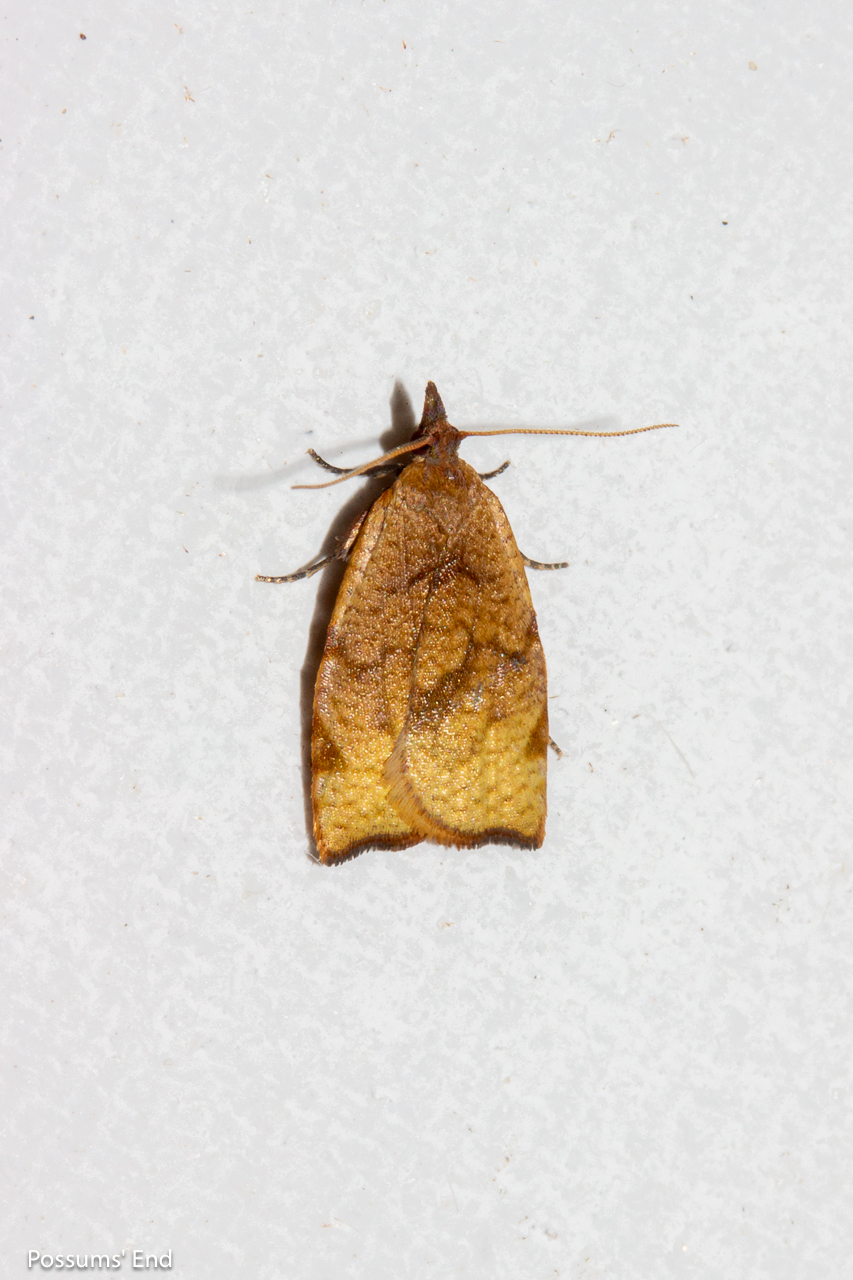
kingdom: Animalia
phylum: Arthropoda
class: Insecta
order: Lepidoptera
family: Tortricidae
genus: Apoctena
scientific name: Apoctena flavescens
